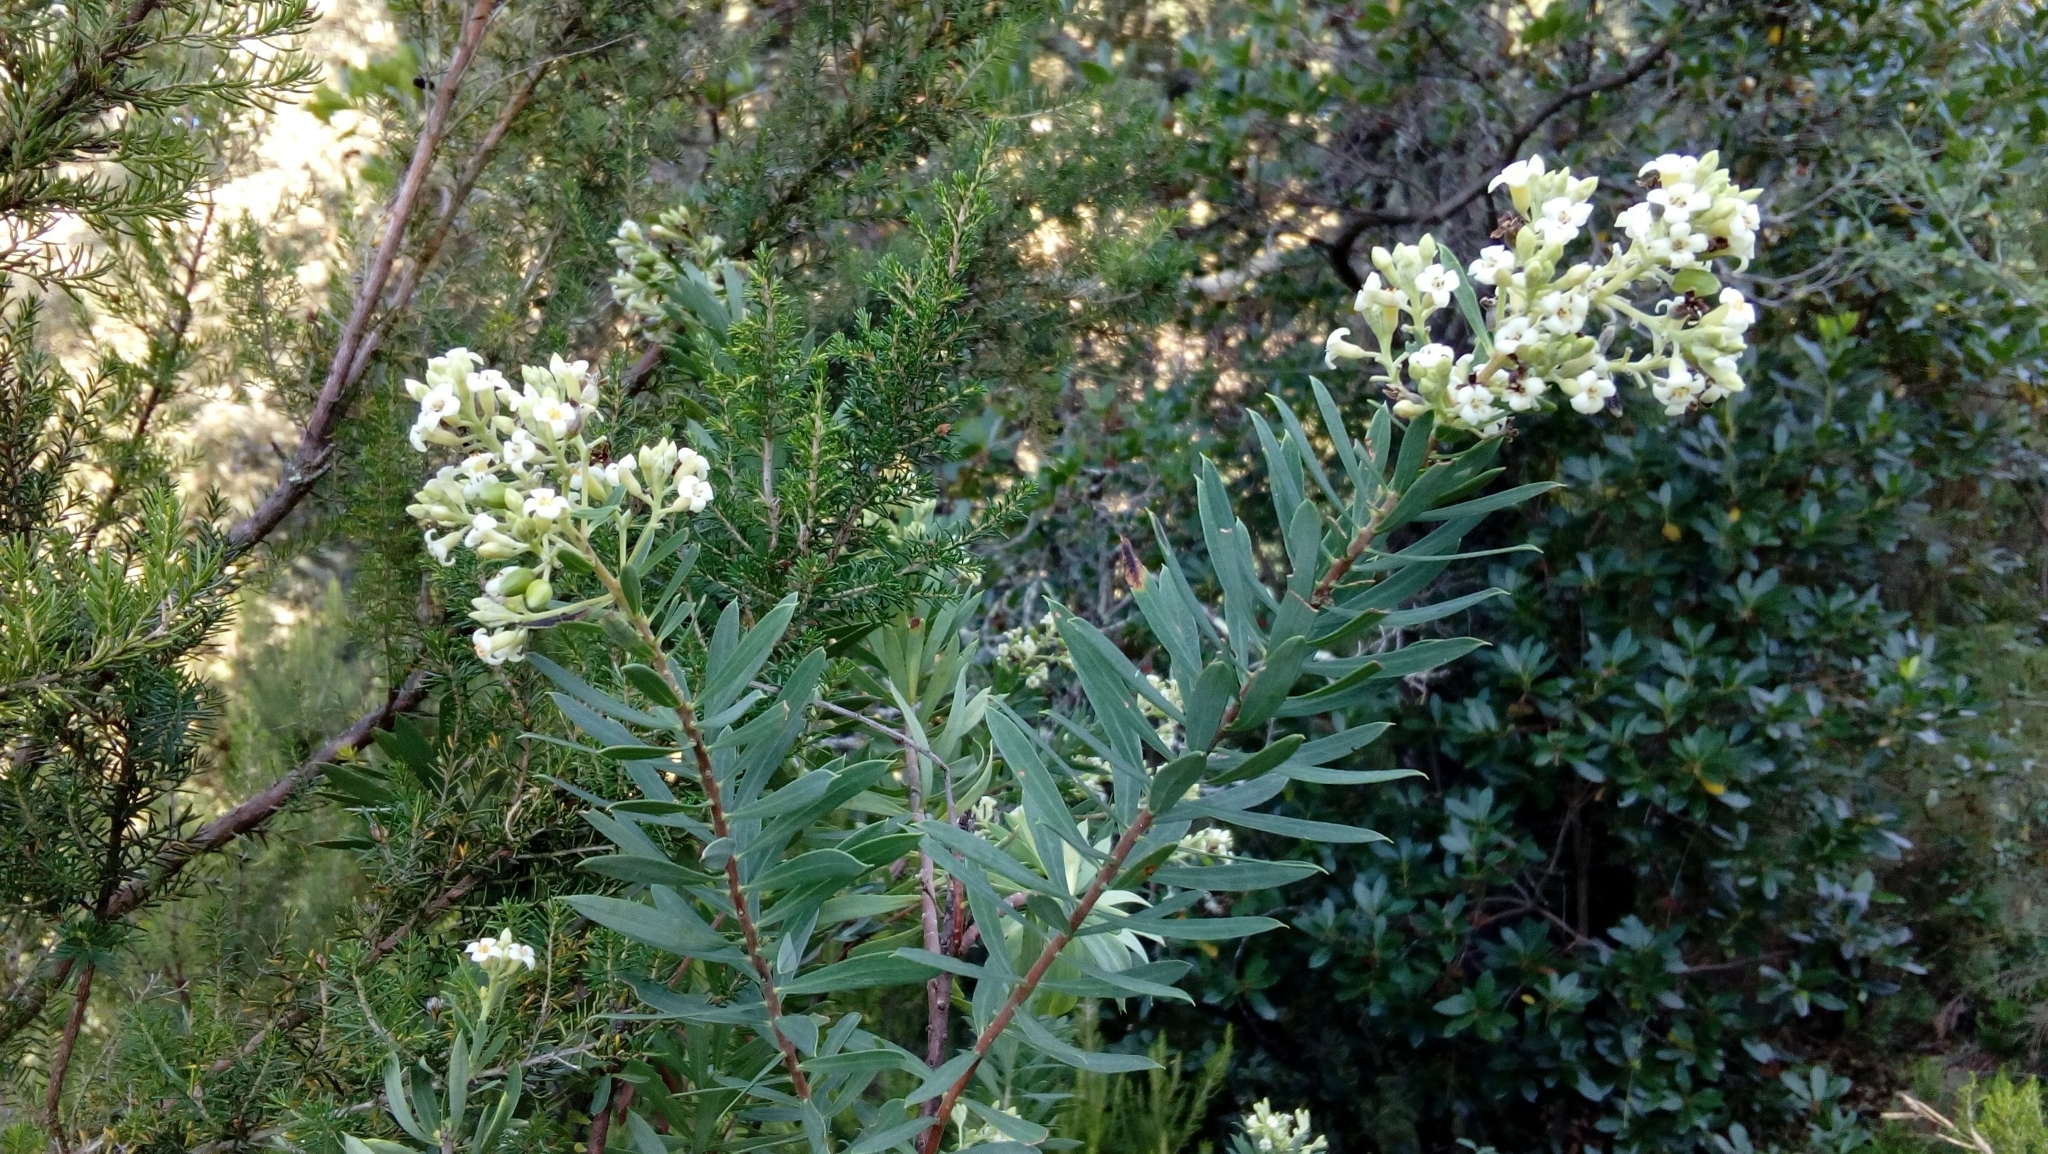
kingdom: Plantae
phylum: Tracheophyta
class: Magnoliopsida
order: Malvales
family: Thymelaeaceae
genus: Daphne
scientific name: Daphne gnidium
